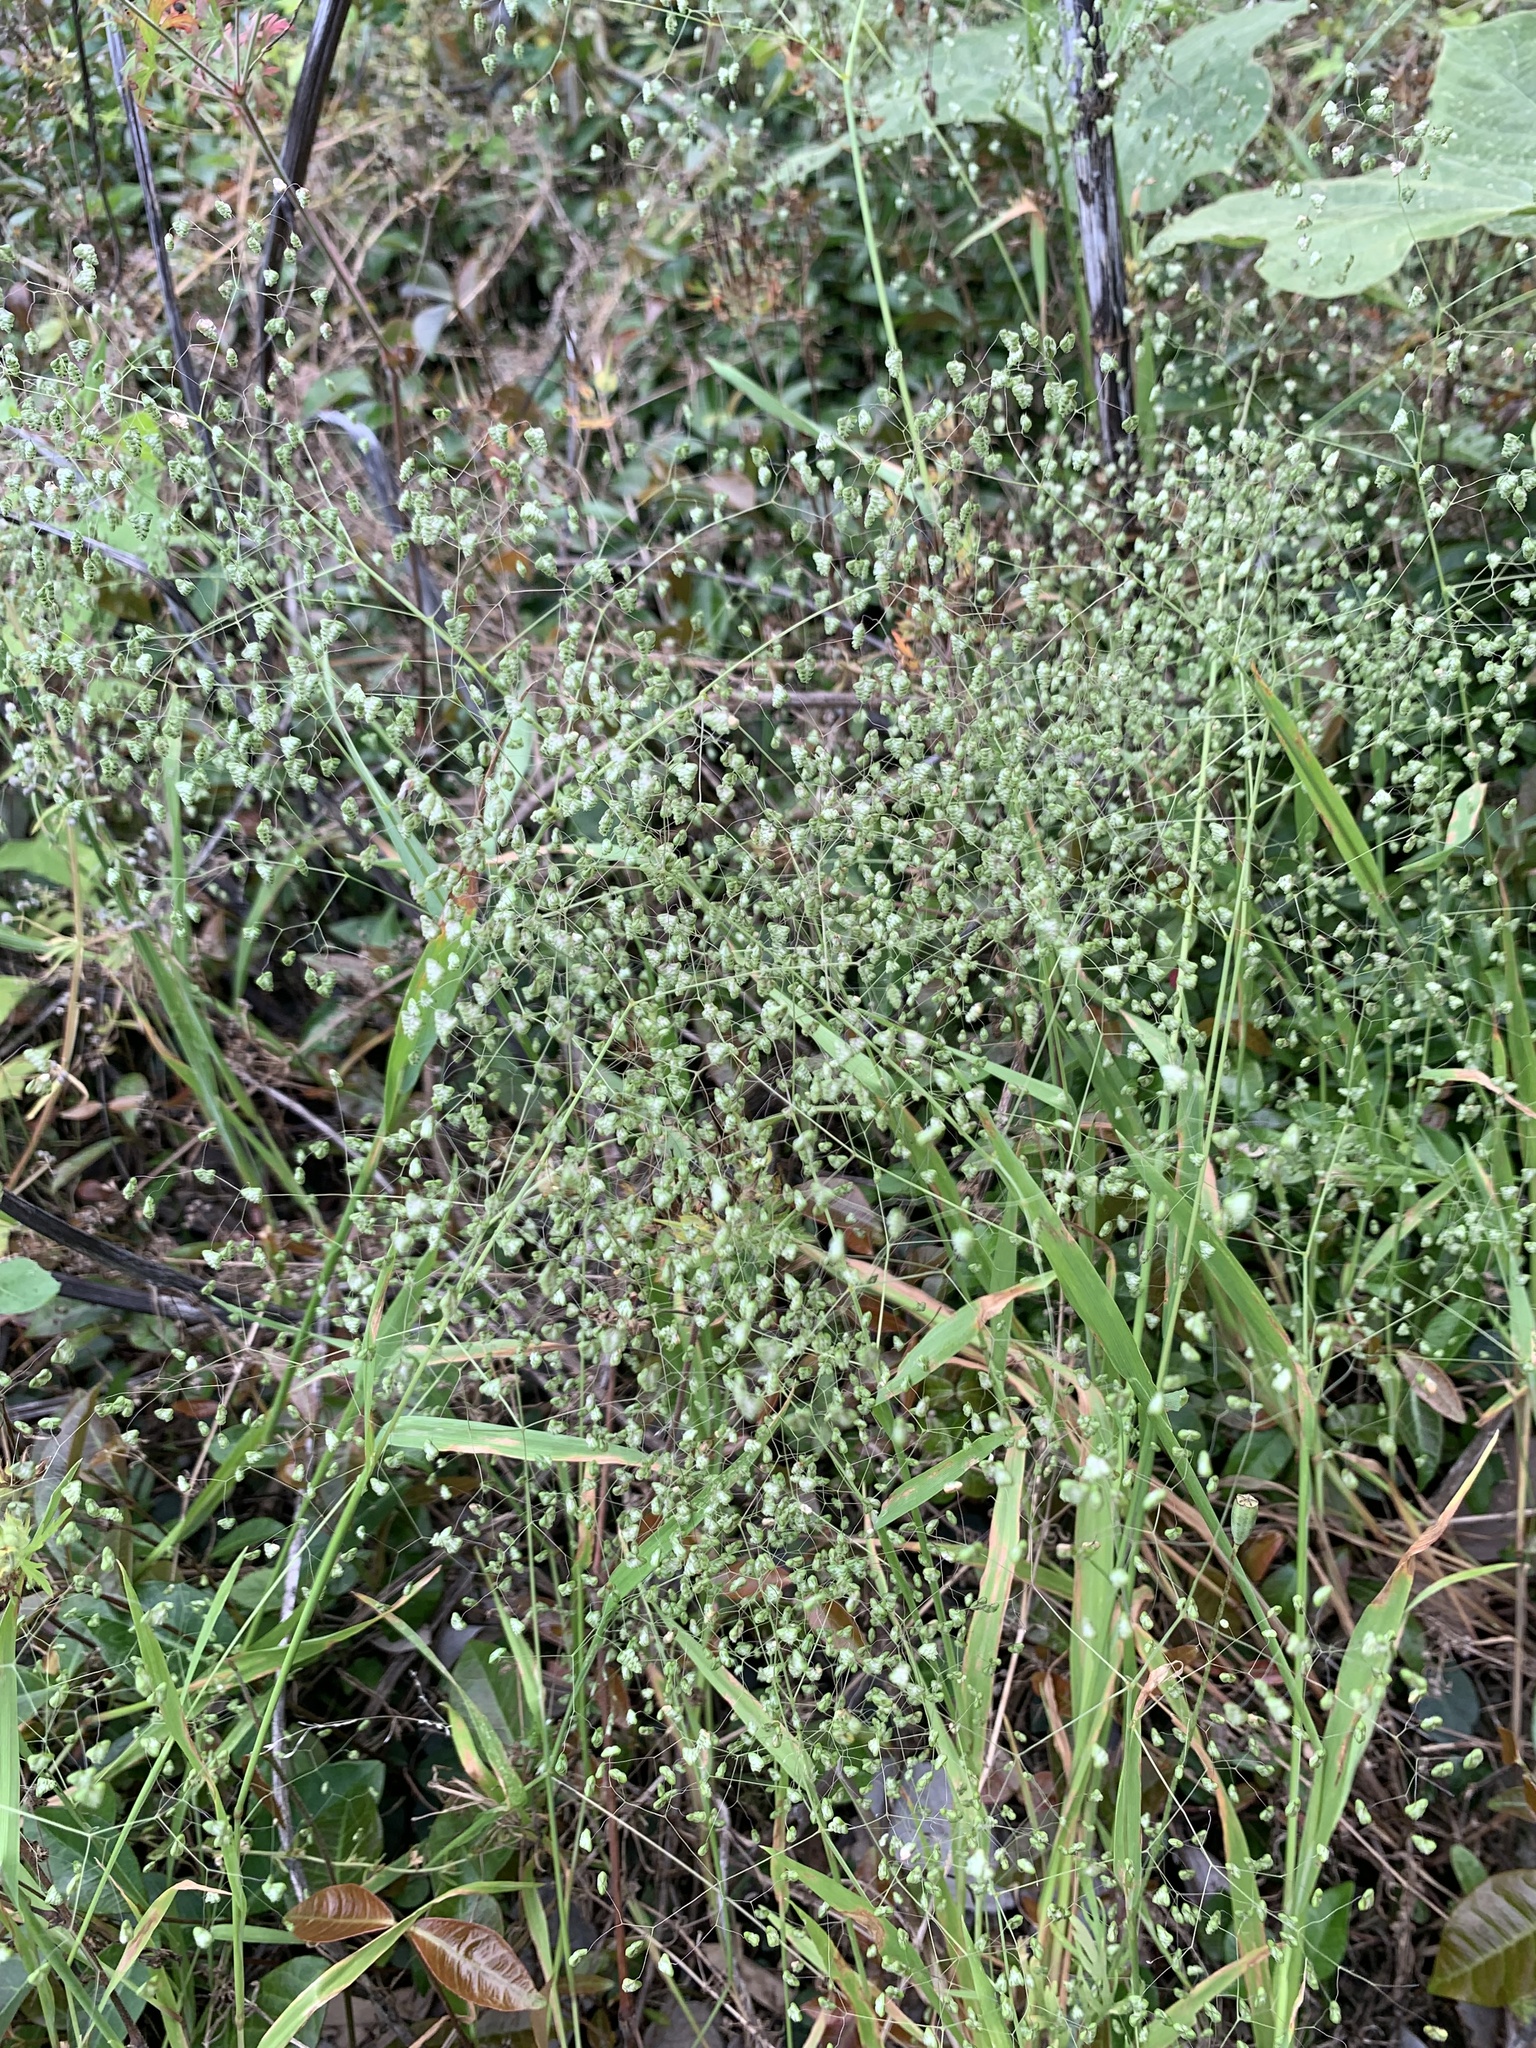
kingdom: Plantae
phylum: Tracheophyta
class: Liliopsida
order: Poales
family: Poaceae
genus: Briza
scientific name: Briza minor
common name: Lesser quaking-grass
